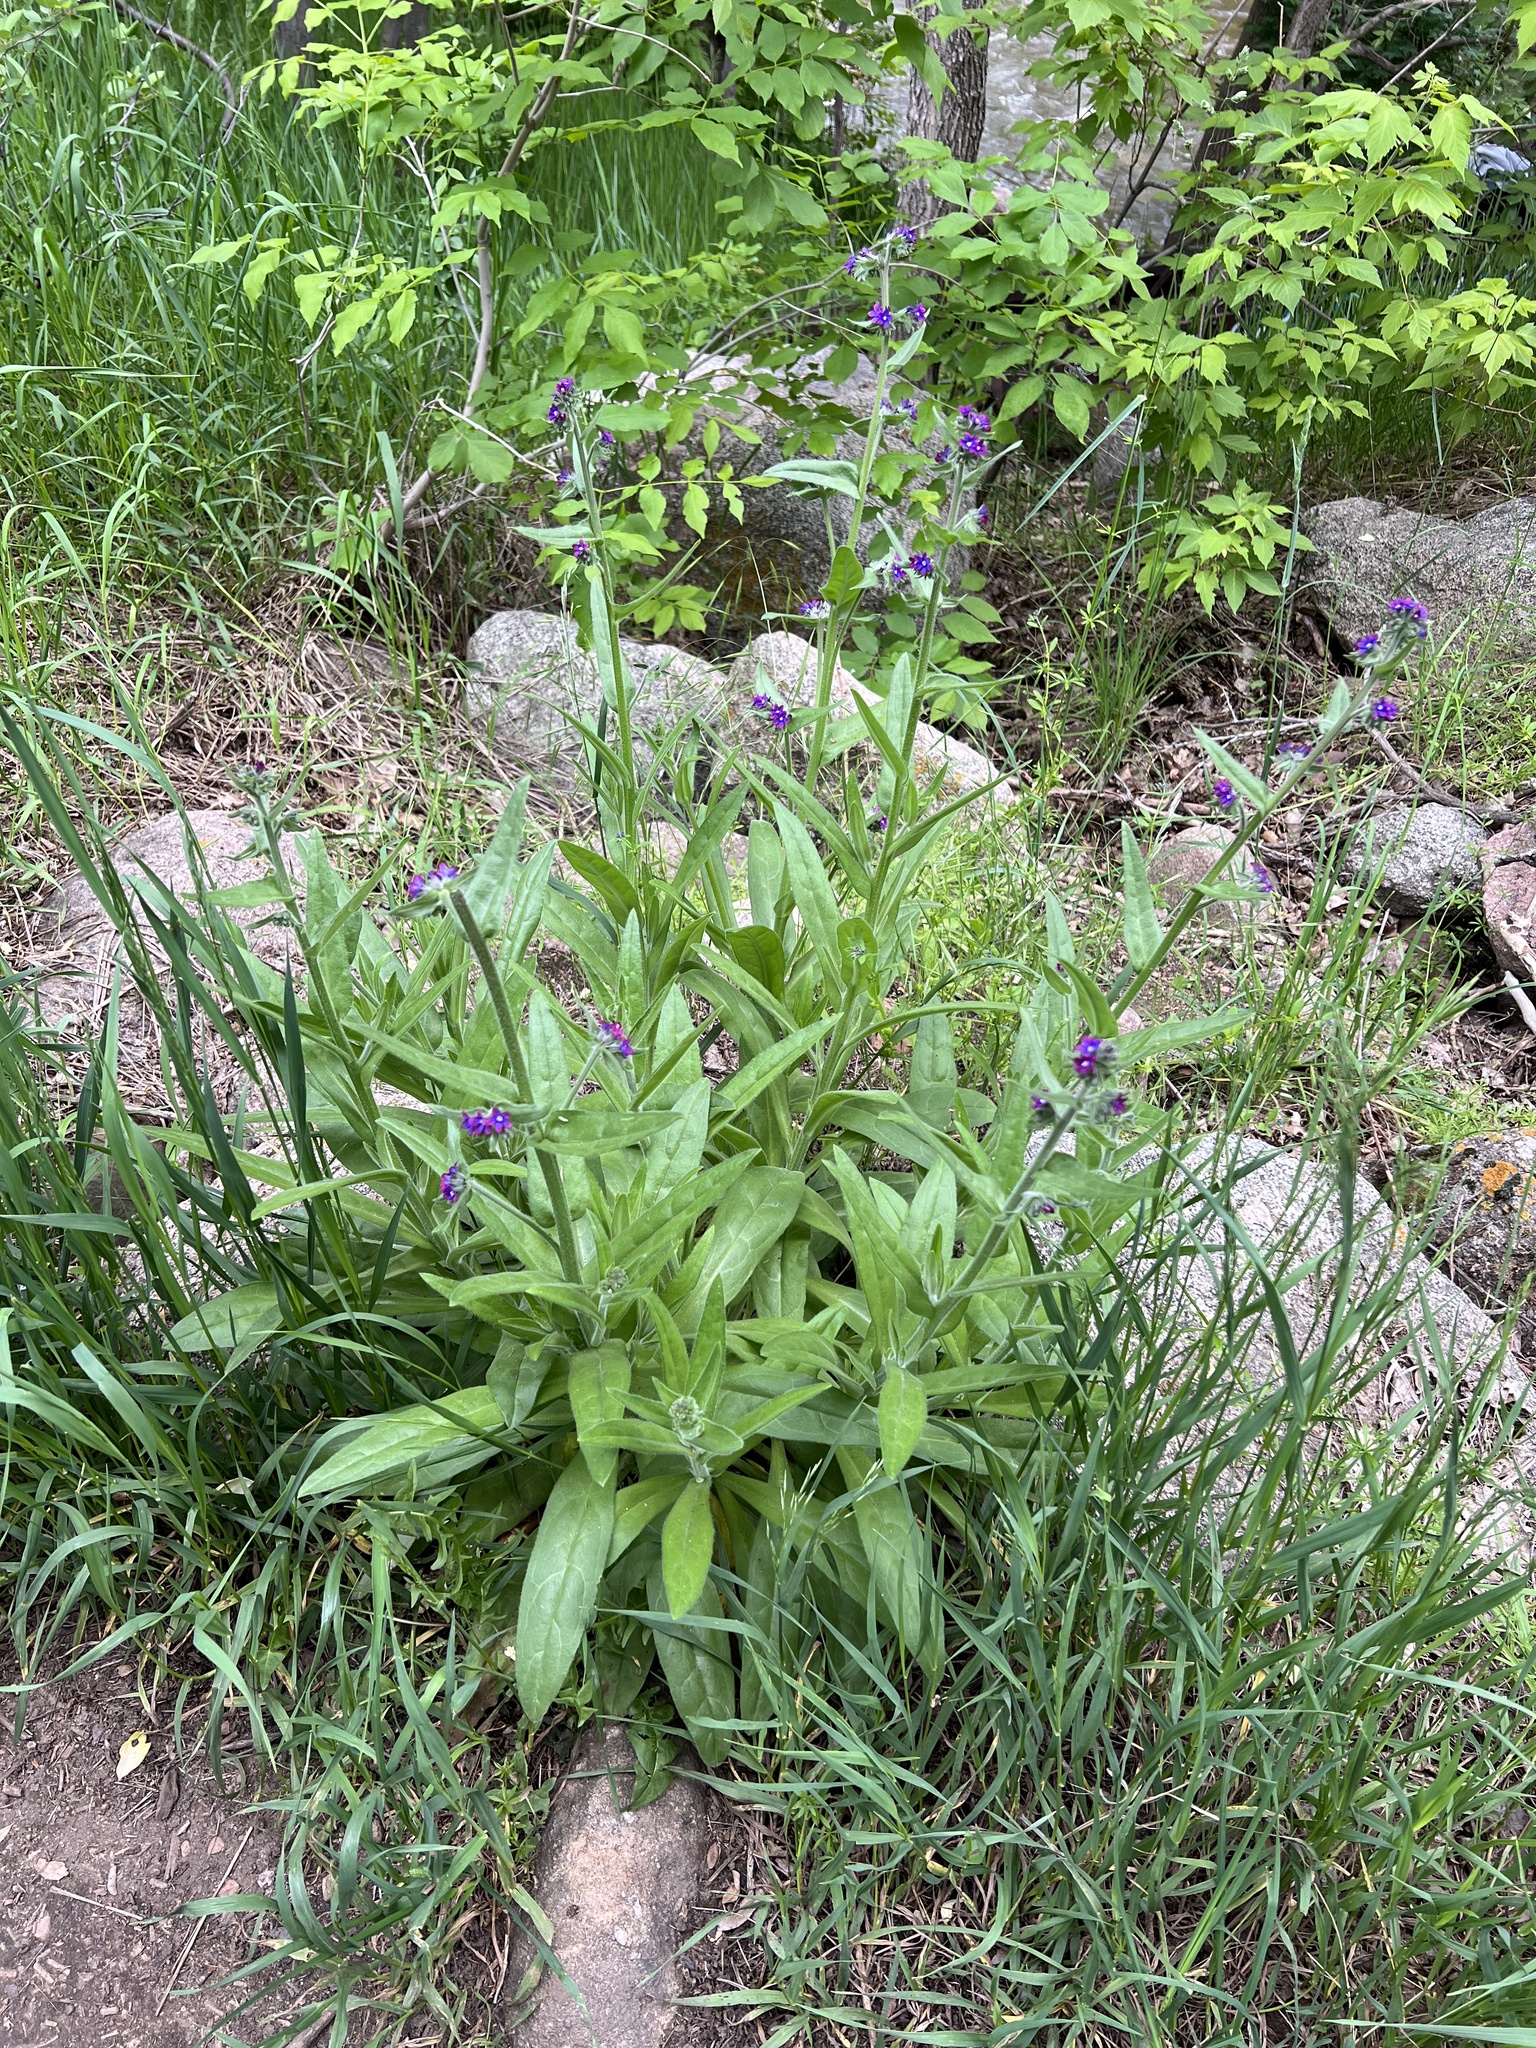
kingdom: Plantae
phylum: Tracheophyta
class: Magnoliopsida
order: Boraginales
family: Boraginaceae
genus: Anchusa
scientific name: Anchusa officinalis
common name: Alkanet
